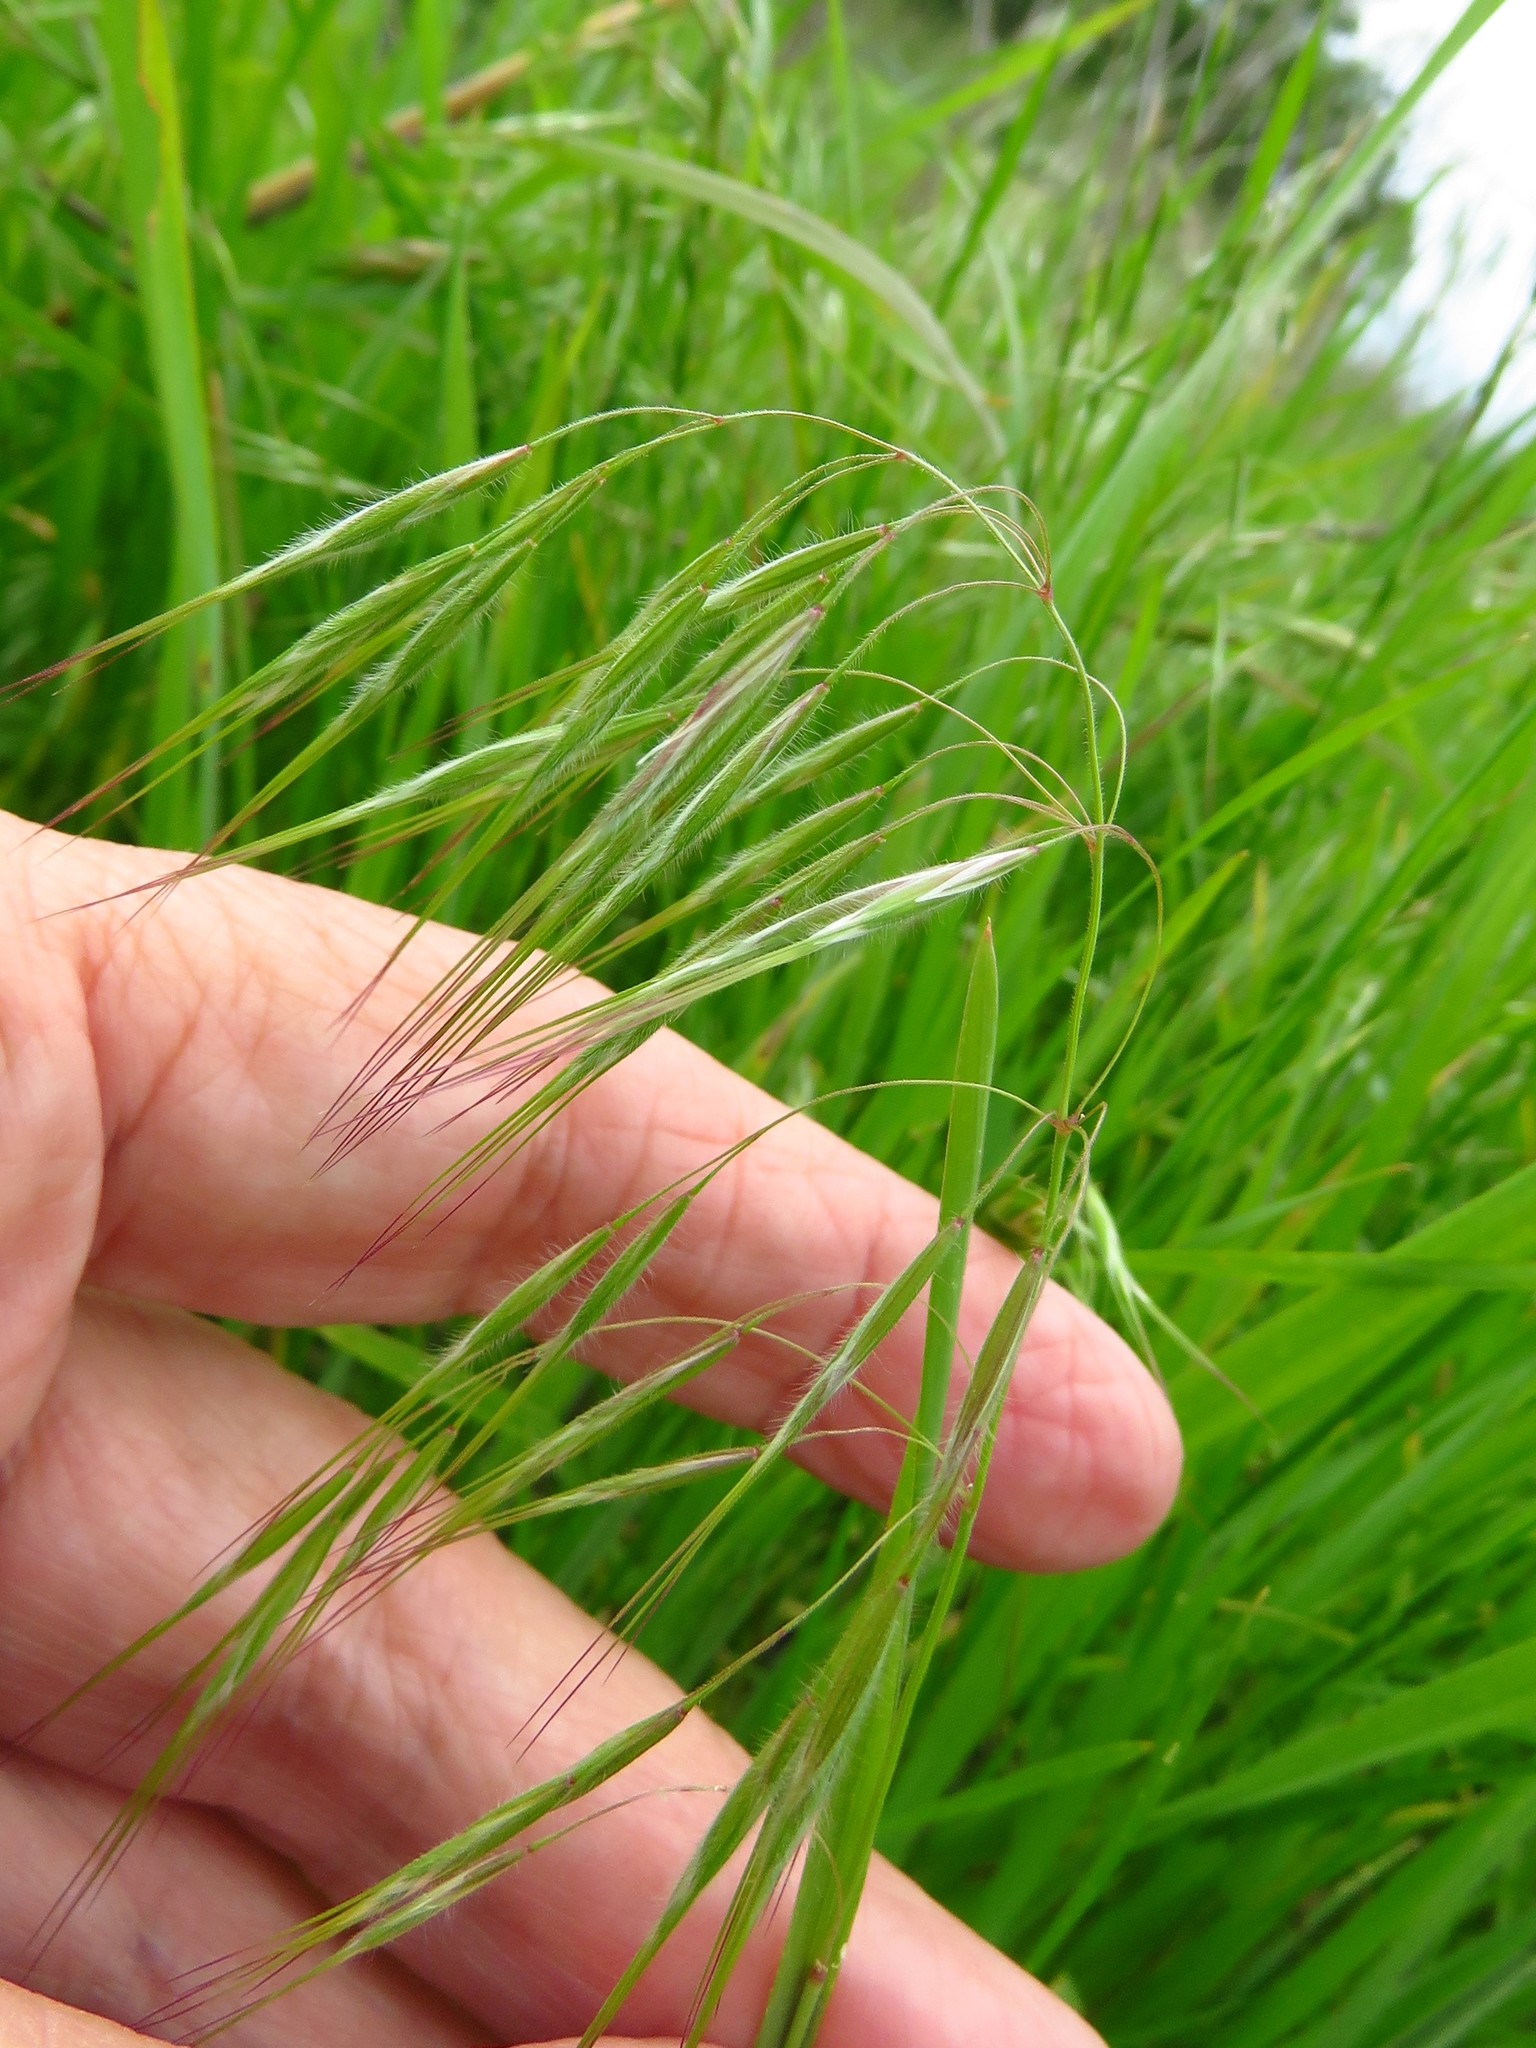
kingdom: Plantae
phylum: Tracheophyta
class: Liliopsida
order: Poales
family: Poaceae
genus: Bromus
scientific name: Bromus tectorum
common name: Cheatgrass
